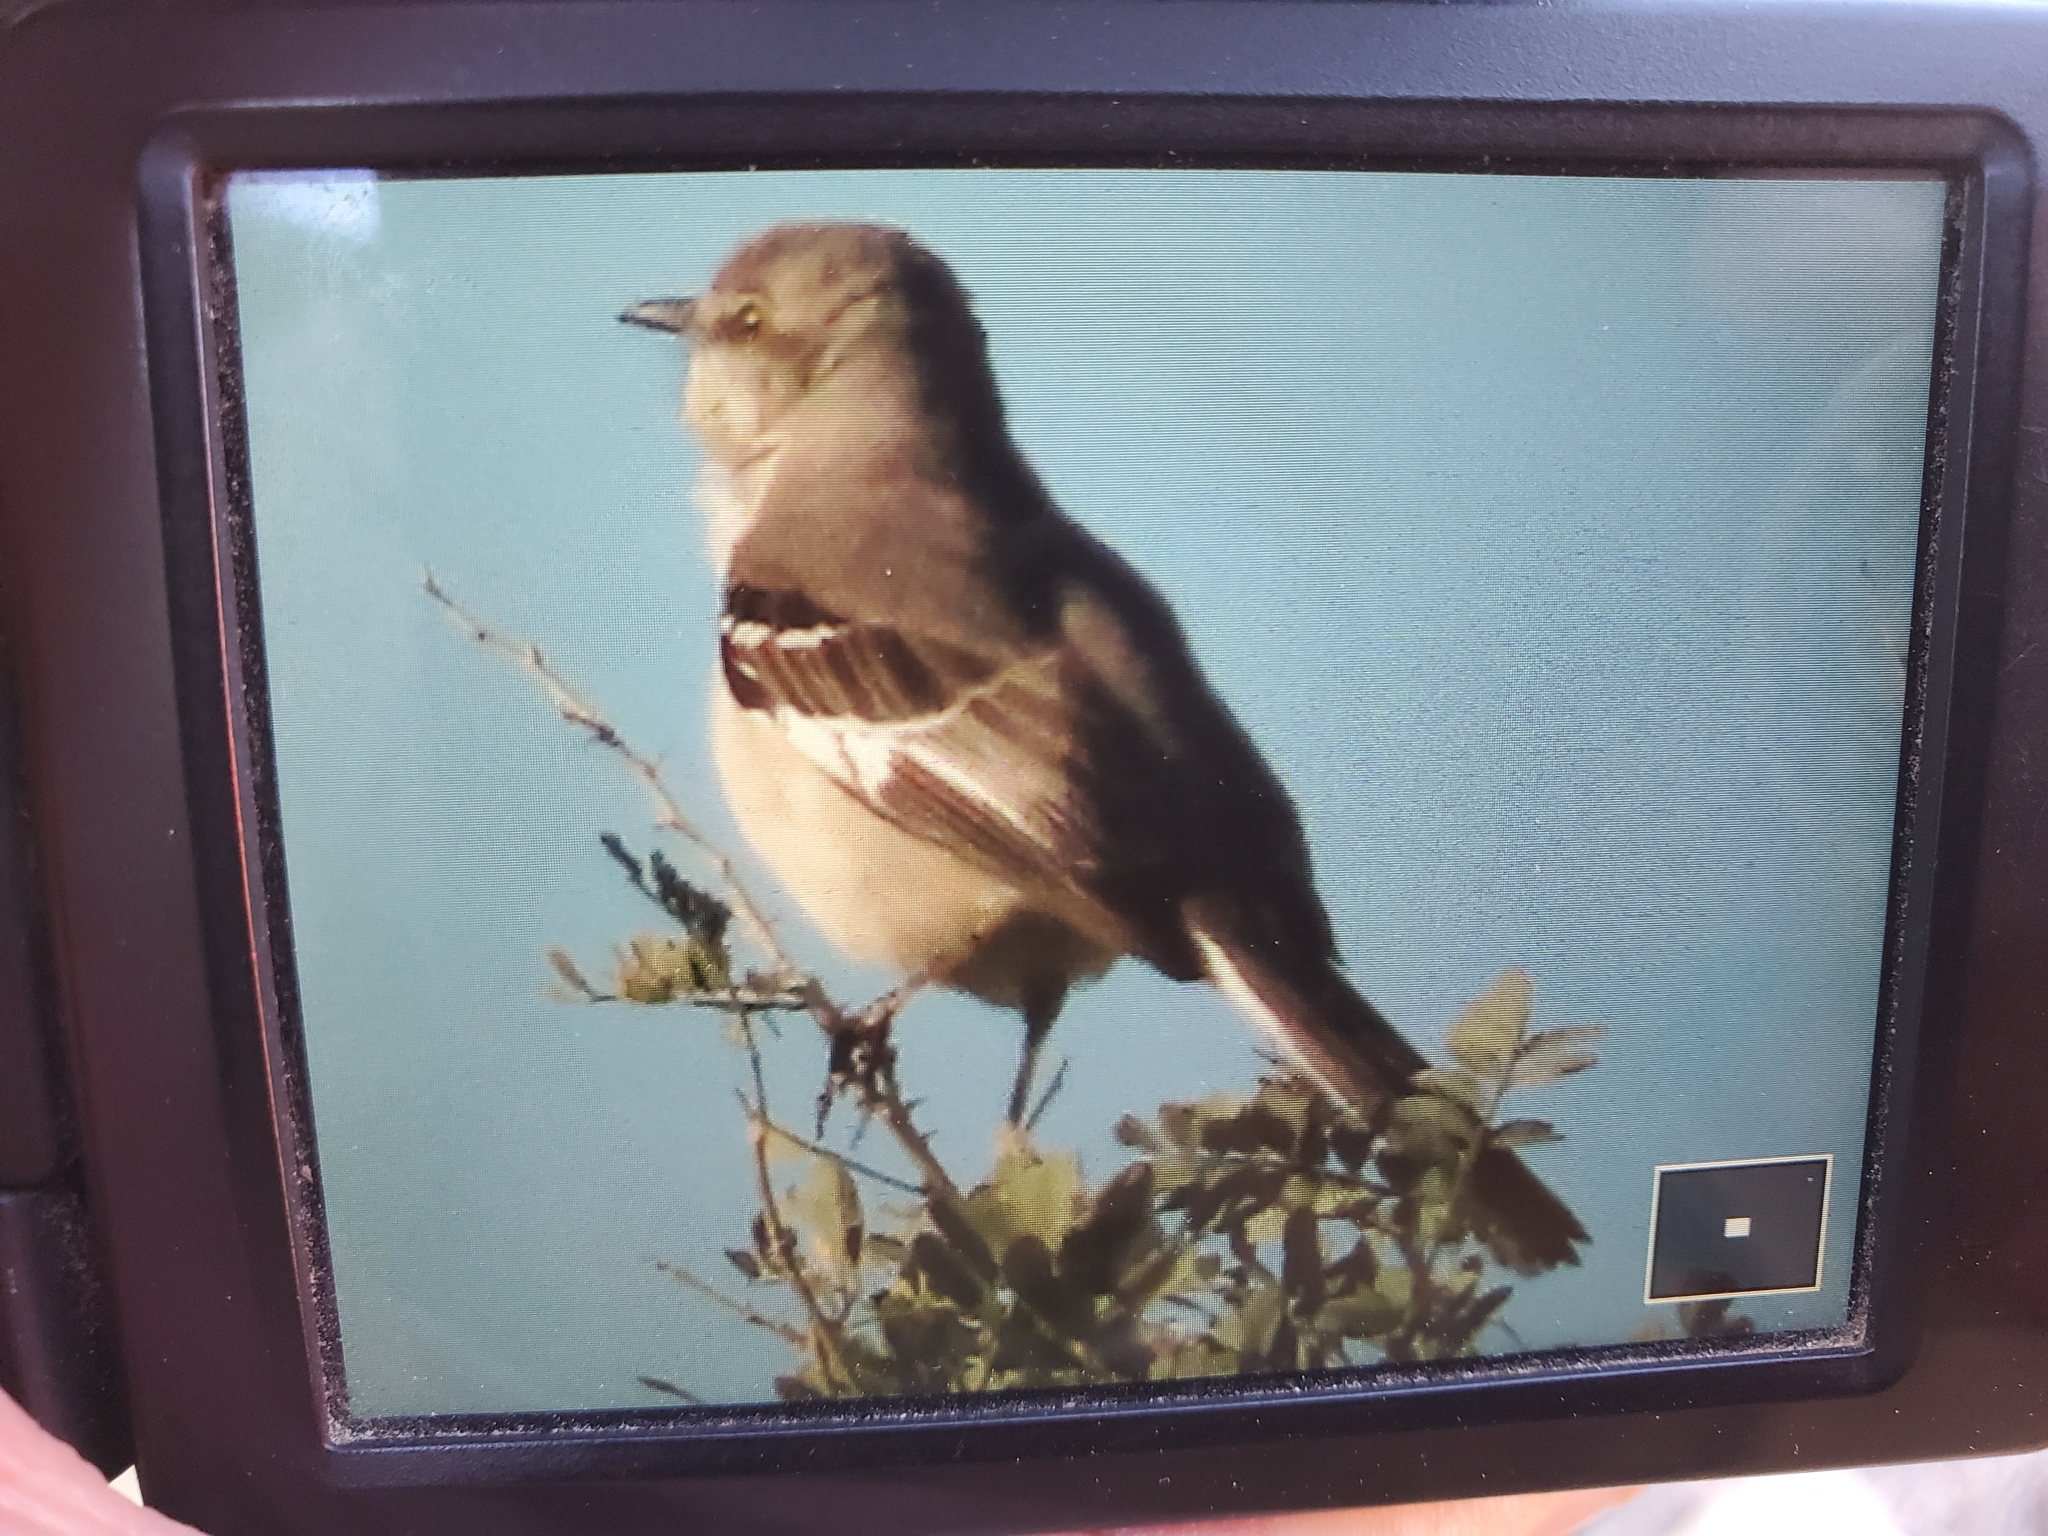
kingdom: Animalia
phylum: Chordata
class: Aves
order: Passeriformes
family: Mimidae
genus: Mimus
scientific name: Mimus polyglottos
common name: Northern mockingbird
